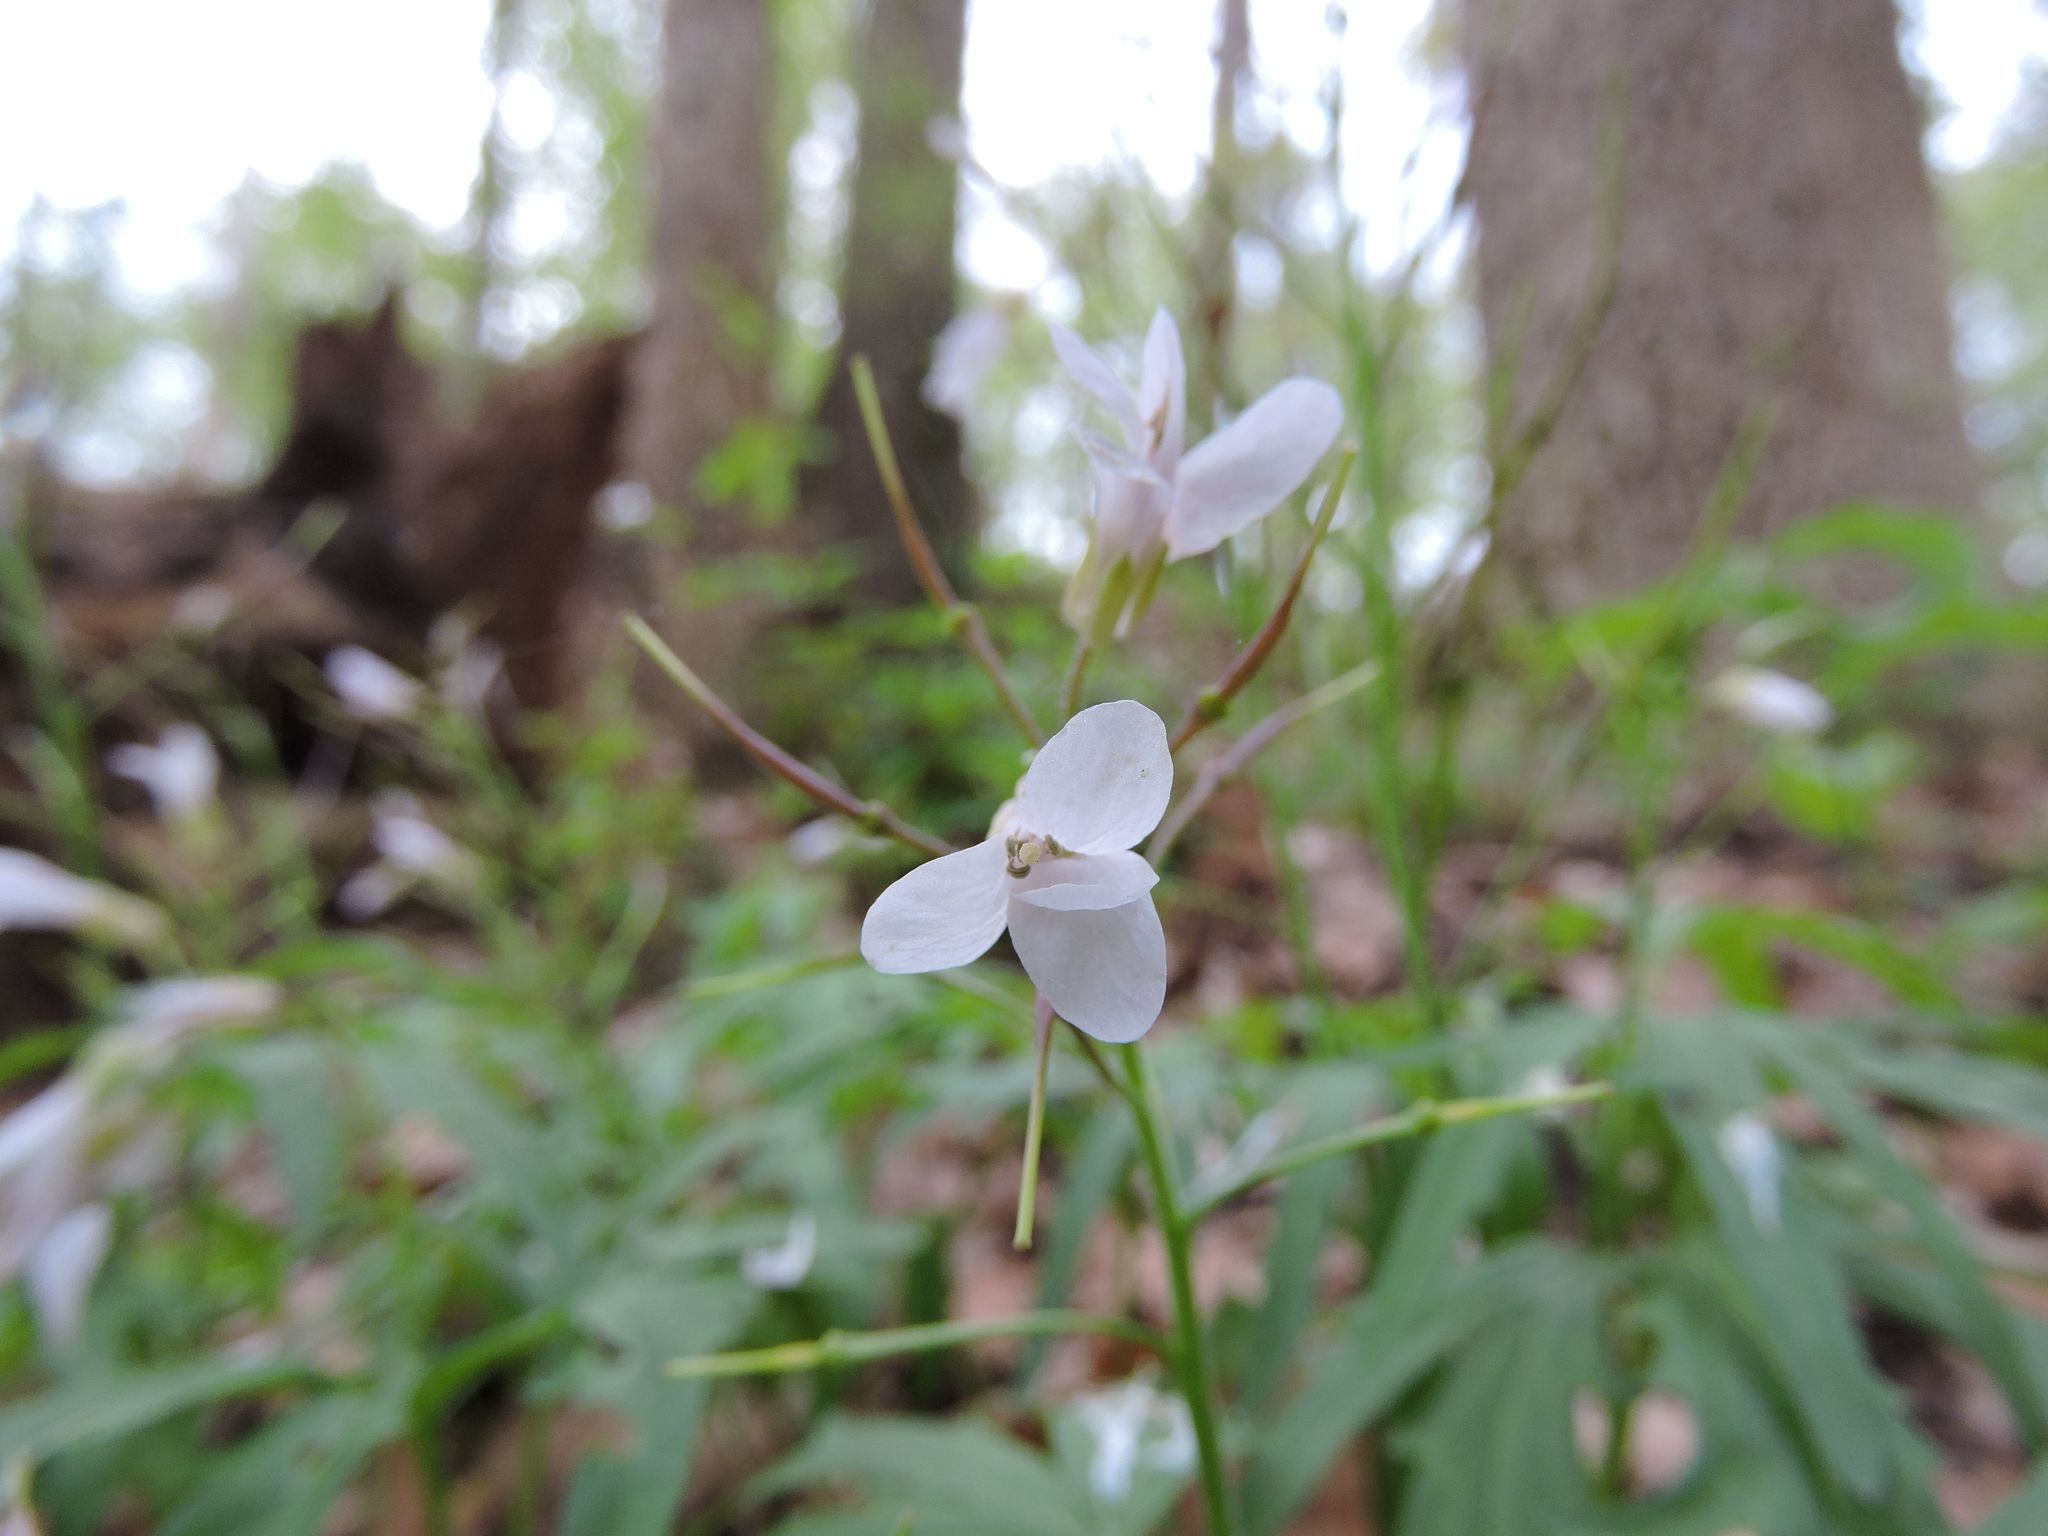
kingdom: Plantae
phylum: Tracheophyta
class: Magnoliopsida
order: Brassicales
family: Brassicaceae
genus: Cardamine
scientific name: Cardamine concatenata
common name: Cut-leaf toothcup
